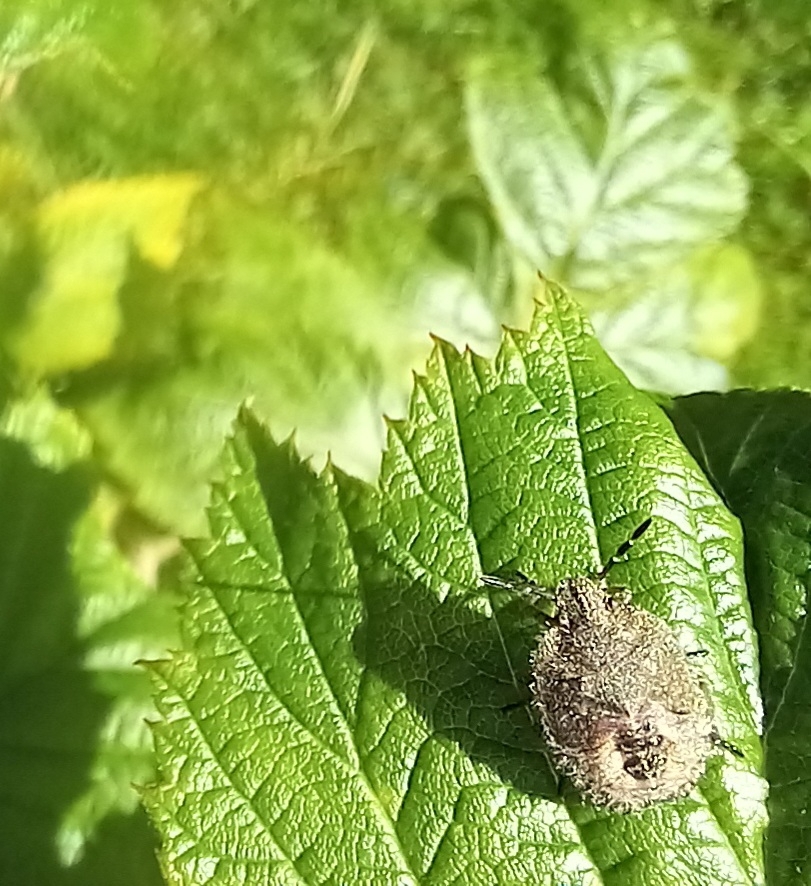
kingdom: Animalia
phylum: Arthropoda
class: Insecta
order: Hemiptera
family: Pentatomidae
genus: Dolycoris
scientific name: Dolycoris baccarum
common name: Sloe bug
